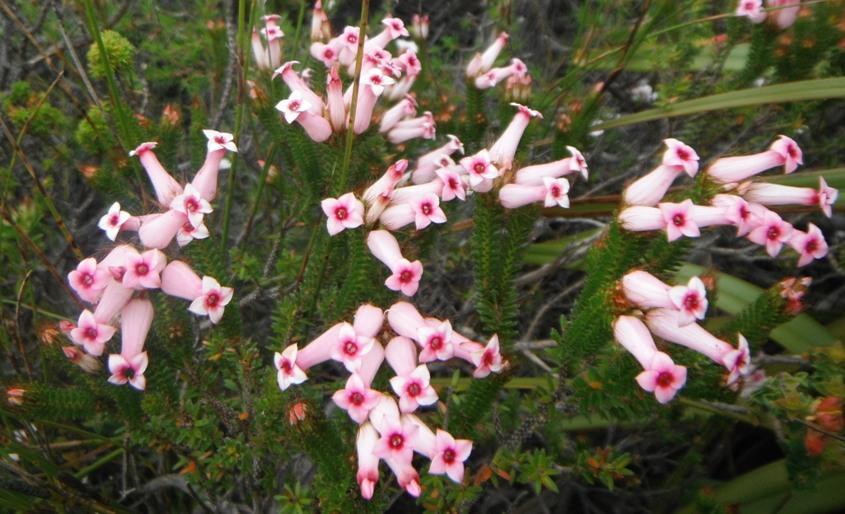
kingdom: Plantae
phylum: Tracheophyta
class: Magnoliopsida
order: Ericales
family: Ericaceae
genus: Erica
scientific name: Erica gysbertii
